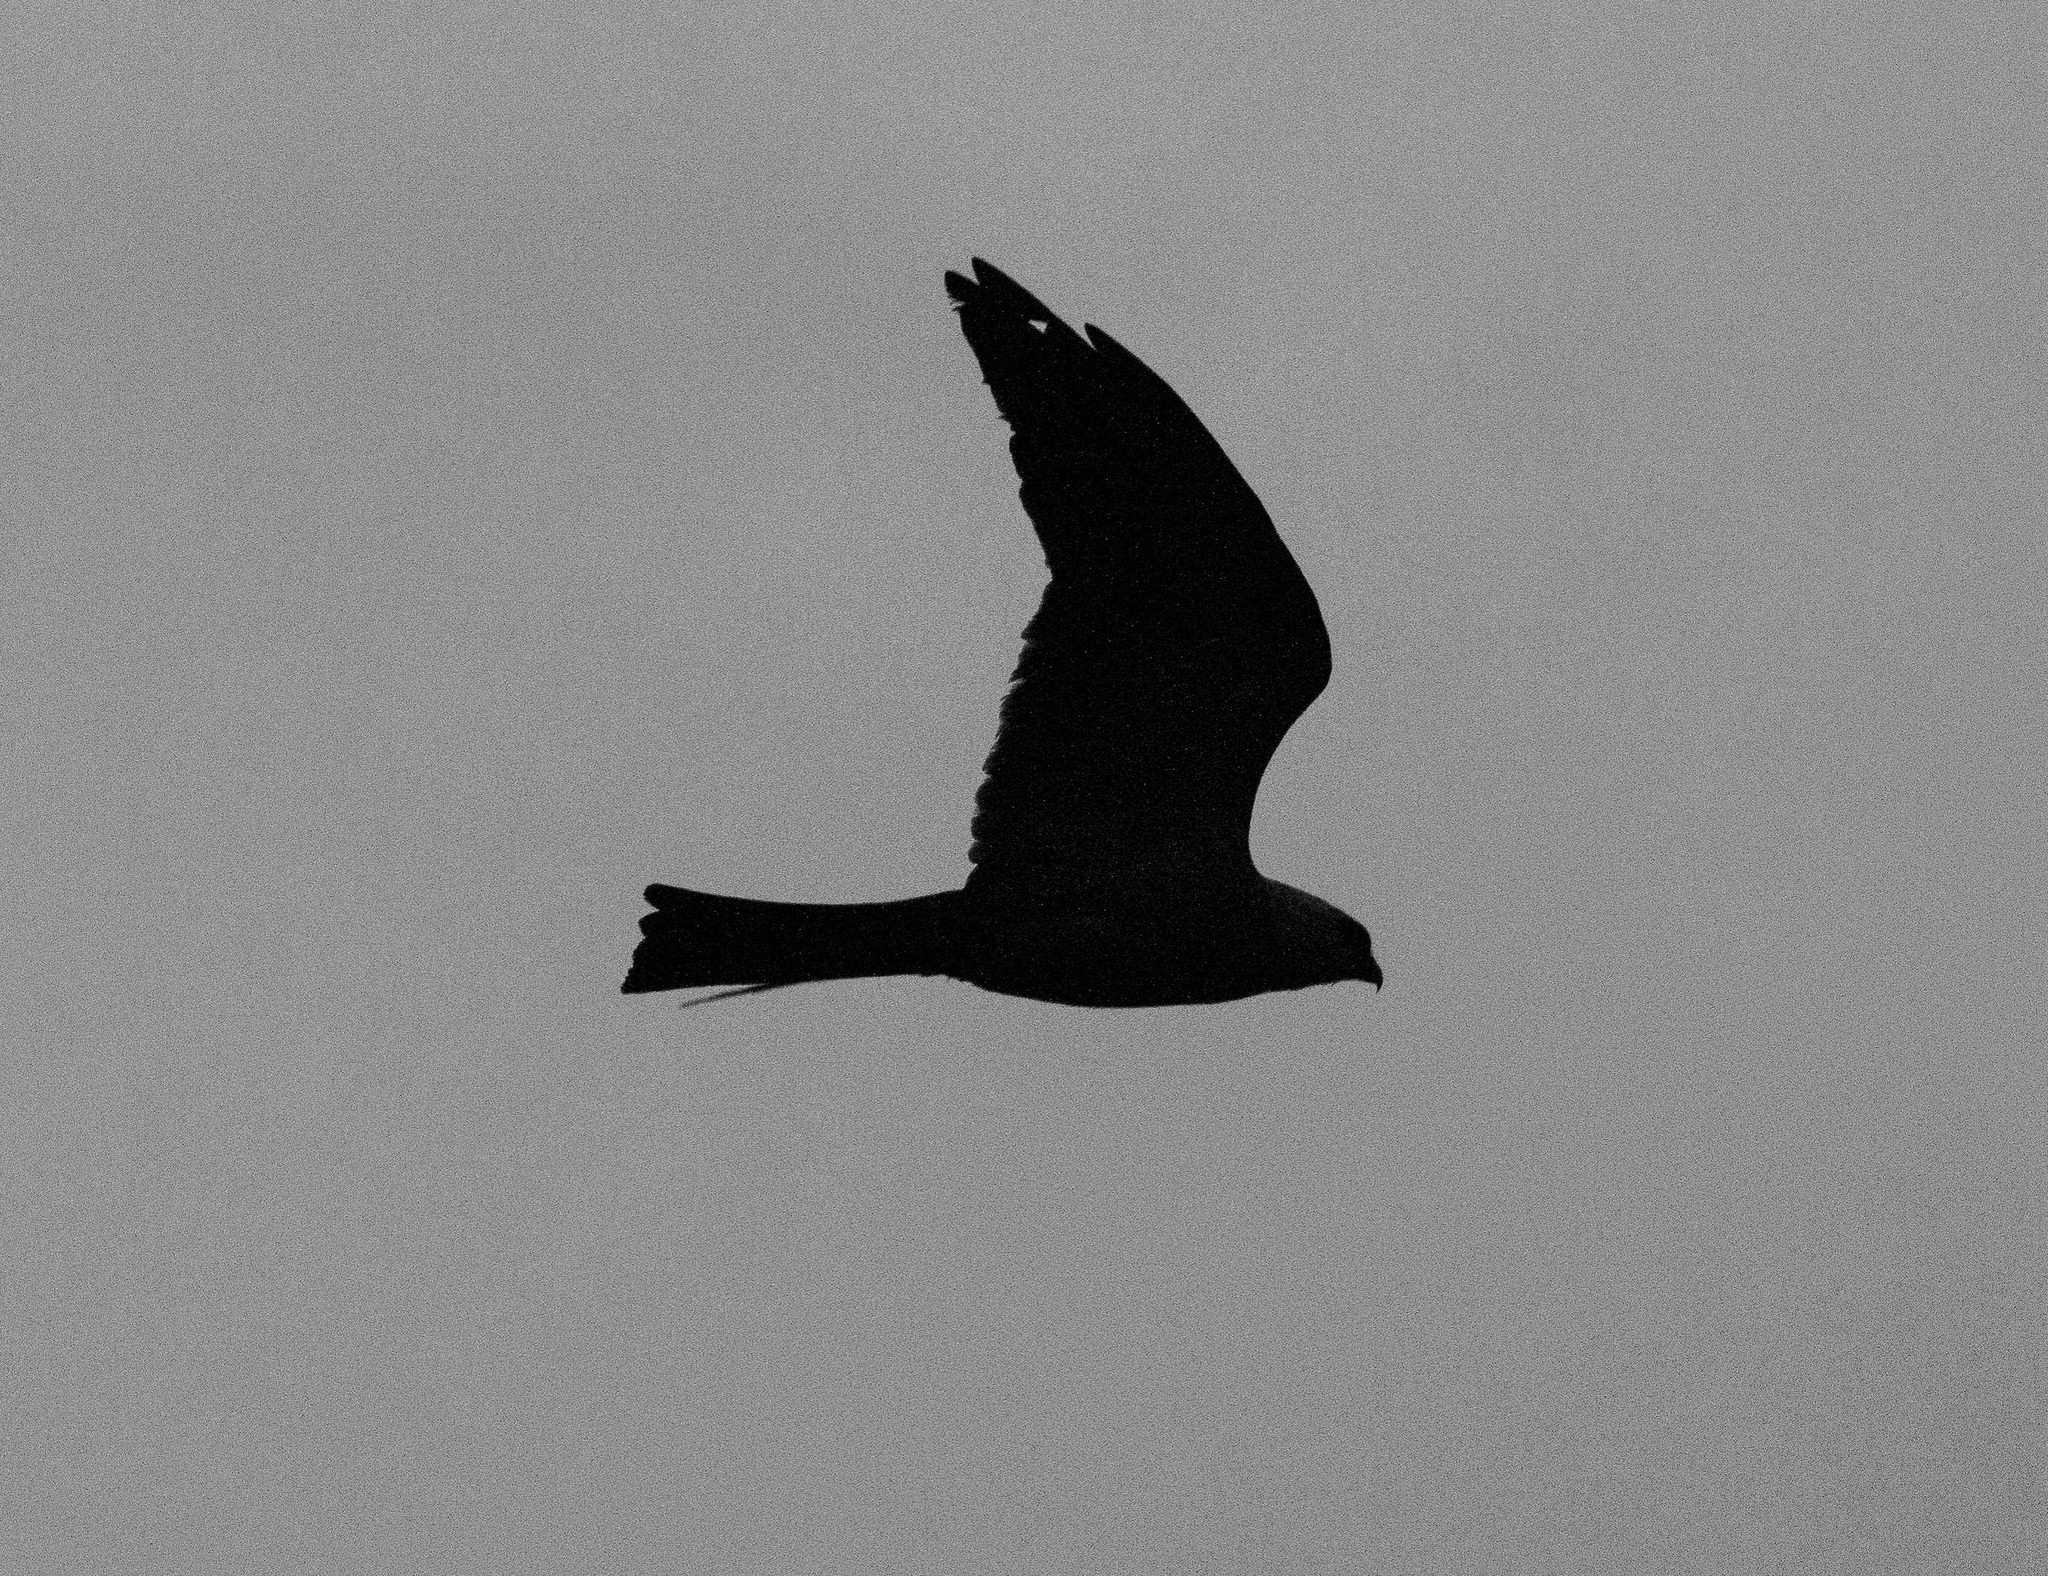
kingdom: Animalia
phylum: Chordata
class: Aves
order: Accipitriformes
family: Accipitridae
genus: Ictinia
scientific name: Ictinia mississippiensis
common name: Mississippi kite
